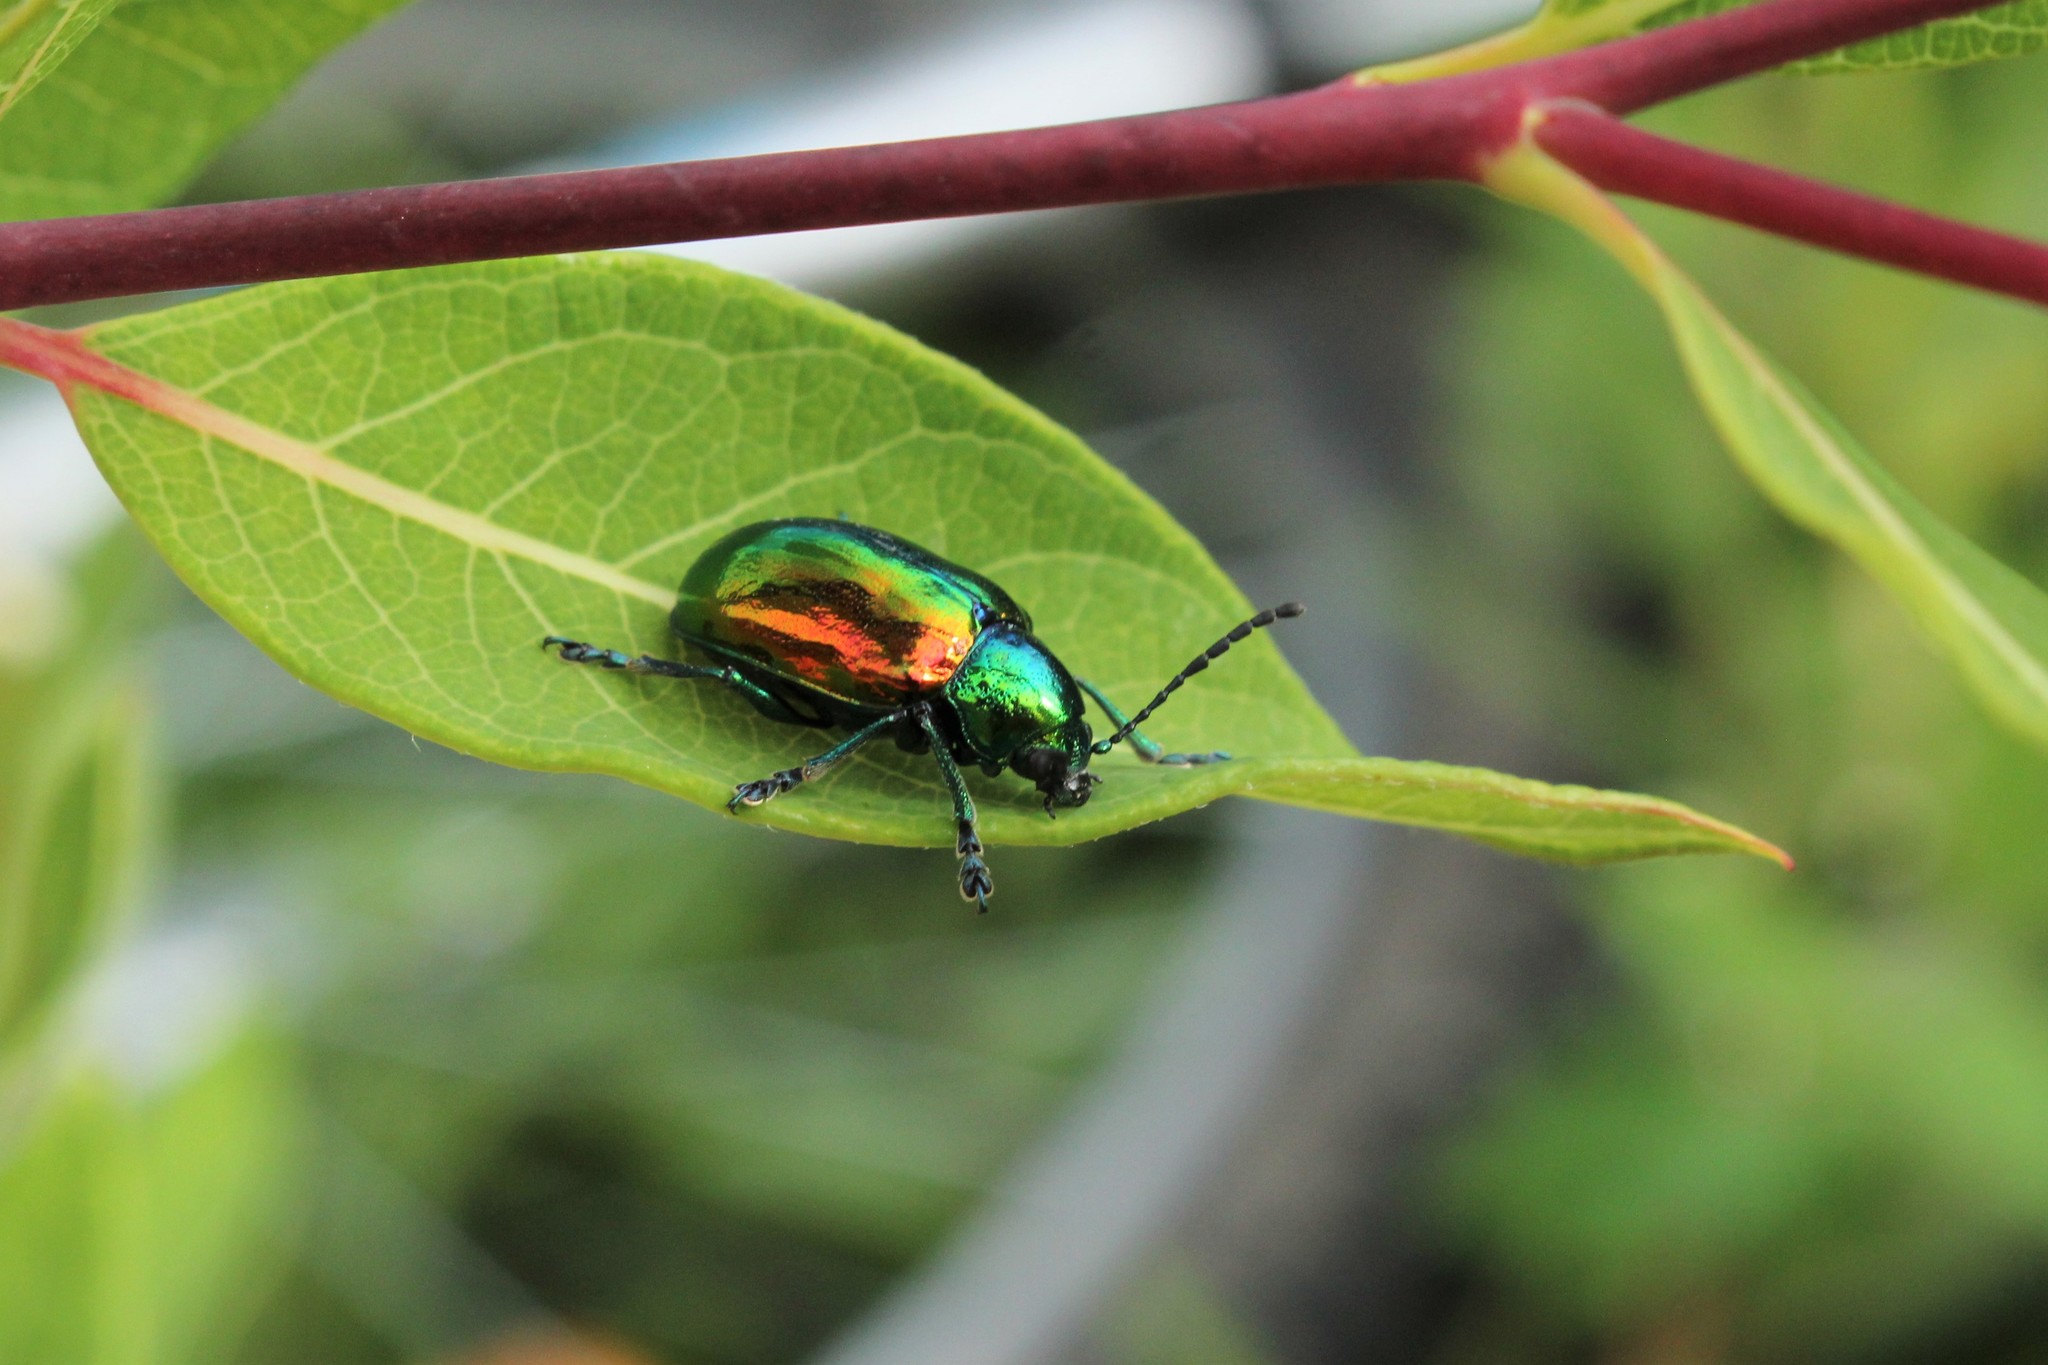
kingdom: Animalia
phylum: Arthropoda
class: Insecta
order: Coleoptera
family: Chrysomelidae
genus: Chrysochus
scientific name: Chrysochus auratus
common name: Dogbane leaf beetle
